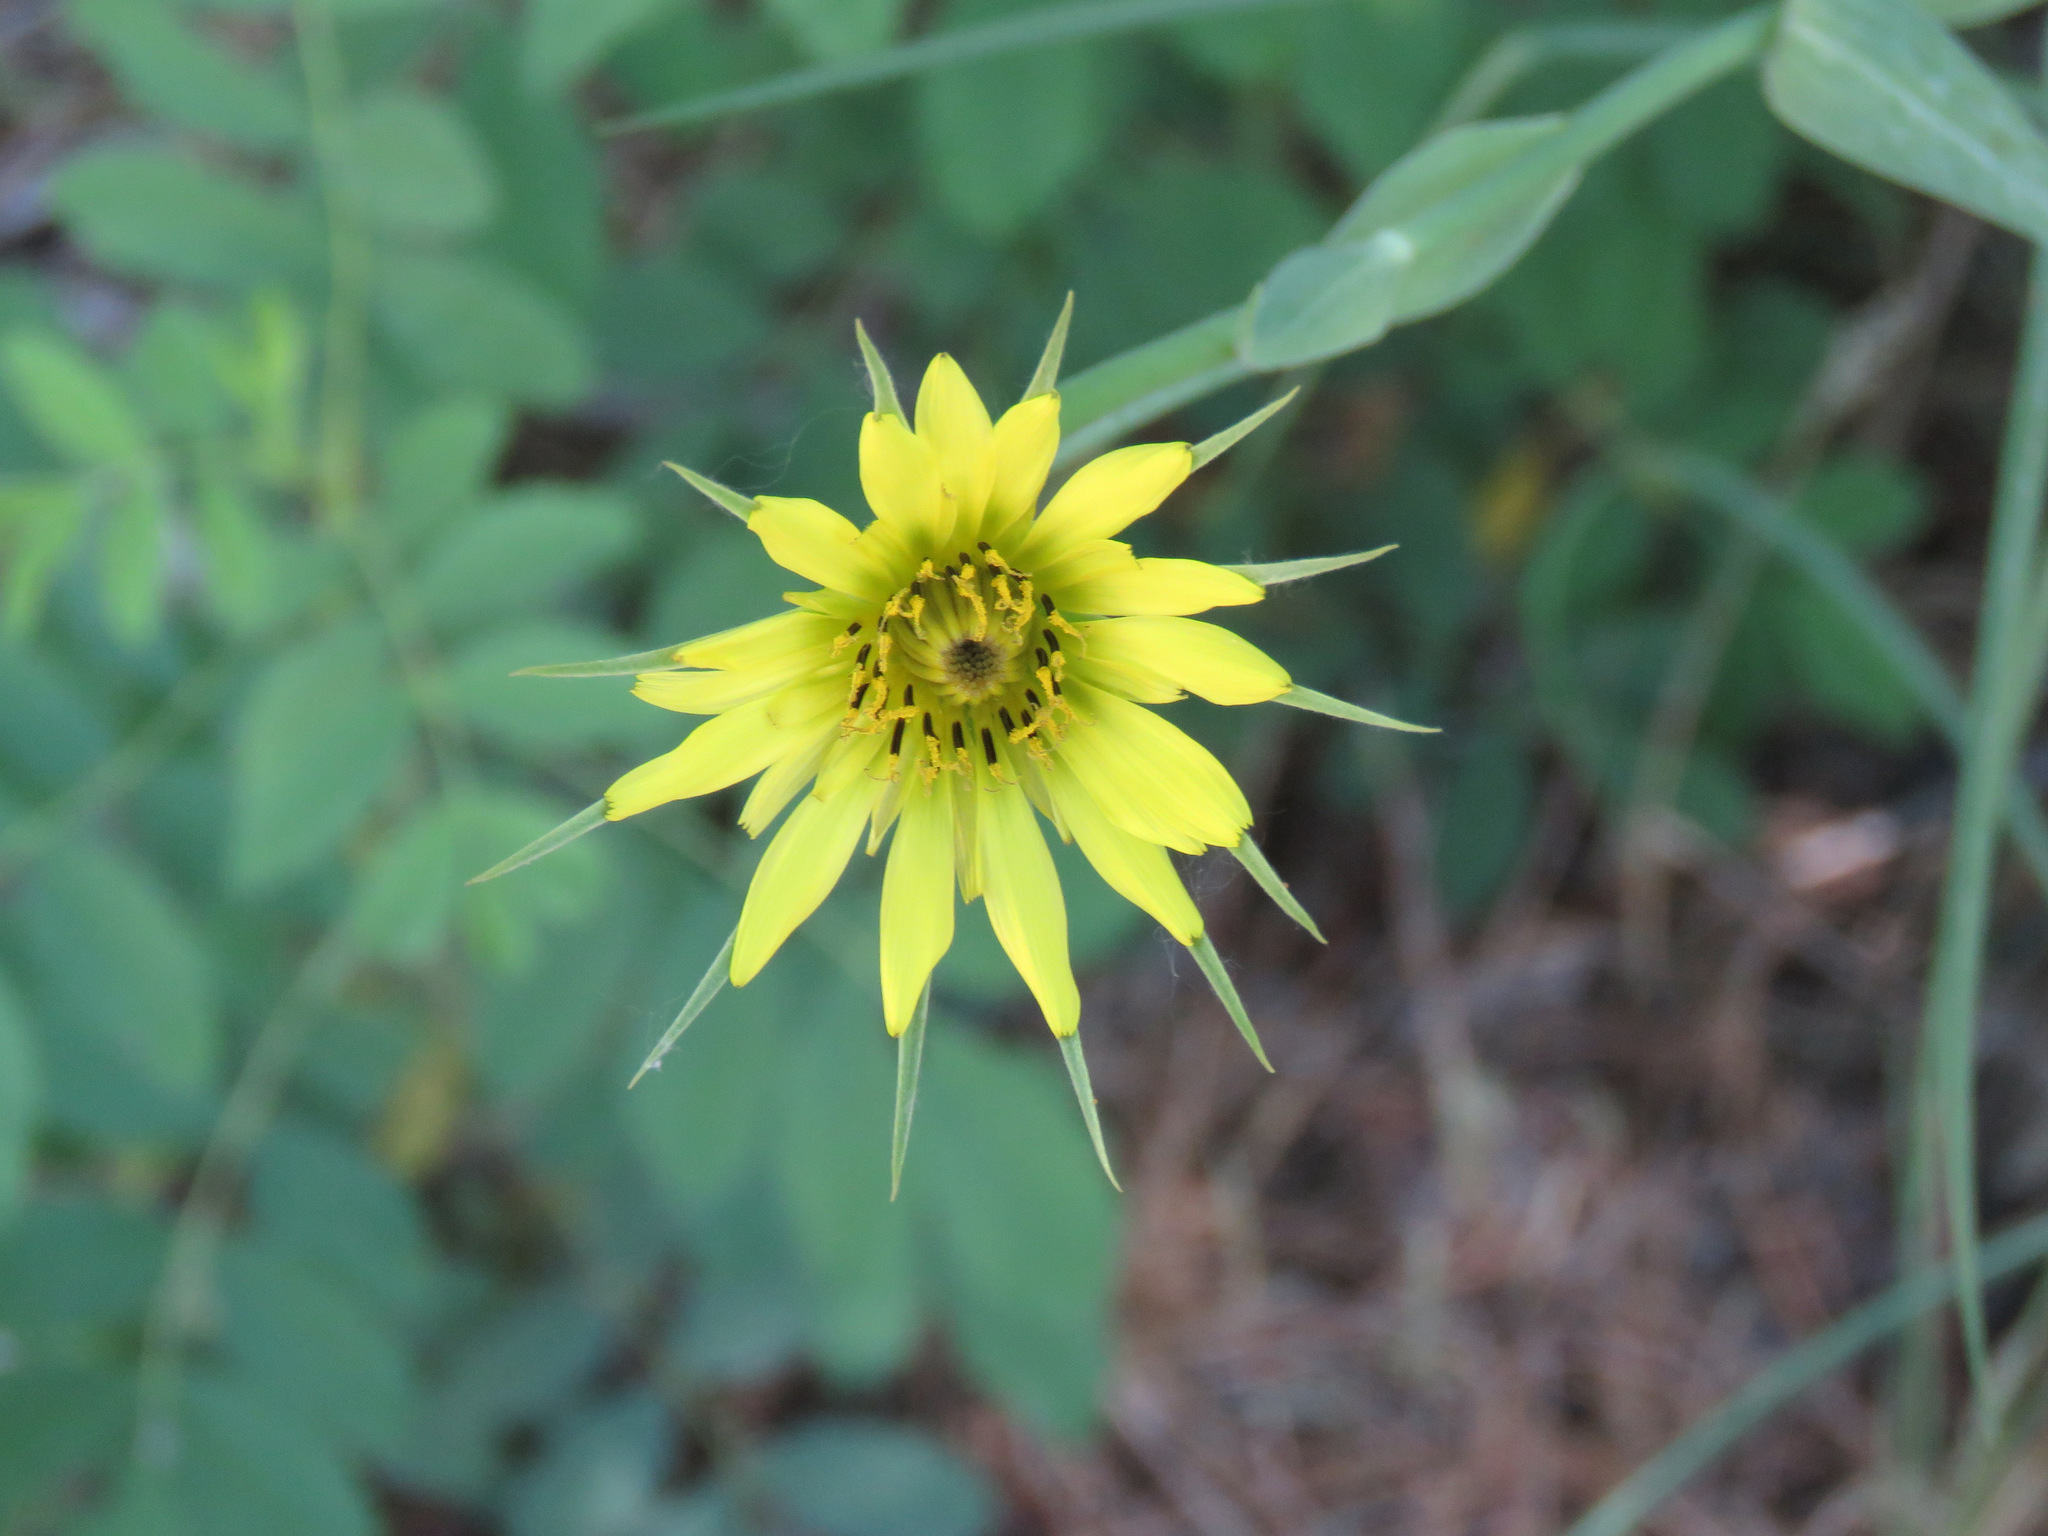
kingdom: Plantae
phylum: Tracheophyta
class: Magnoliopsida
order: Asterales
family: Asteraceae
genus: Tragopogon
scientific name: Tragopogon dubius
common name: Yellow salsify
